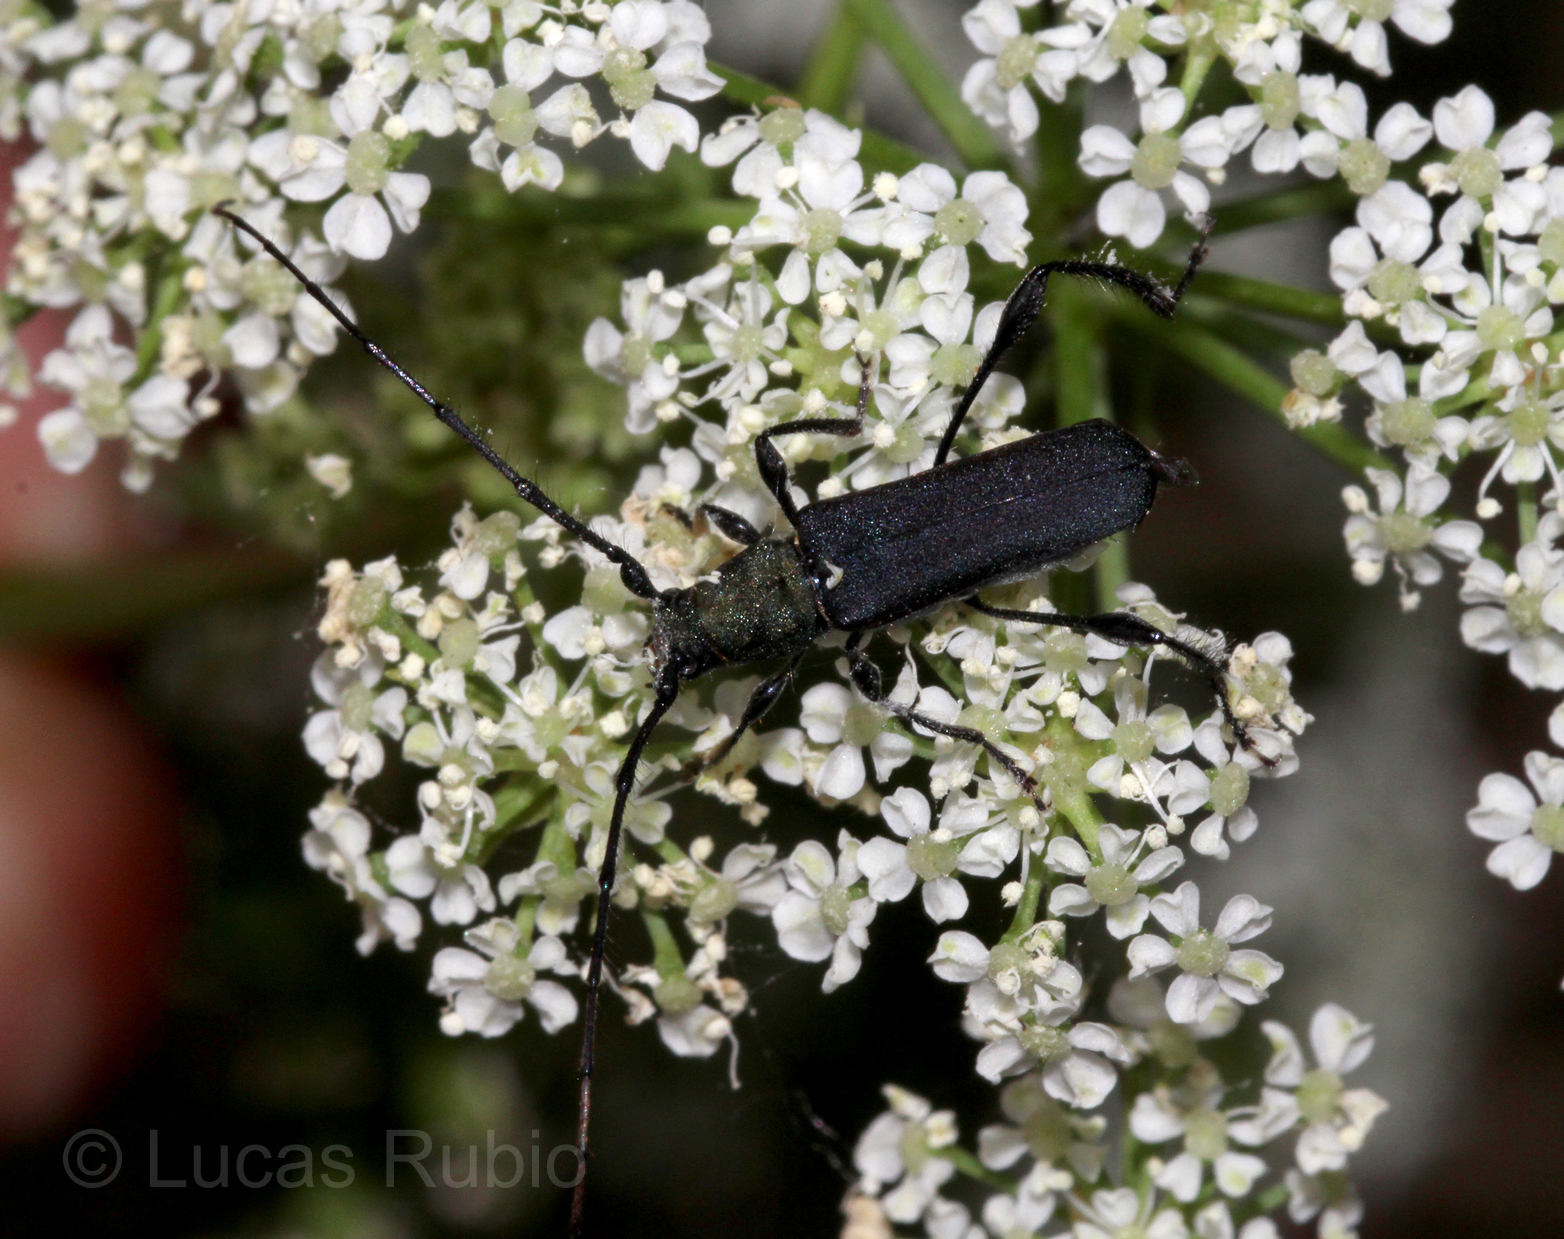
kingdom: Animalia
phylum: Arthropoda
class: Insecta
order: Coleoptera
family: Cerambycidae
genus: Ischionodonta
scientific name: Ischionodonta platensis
